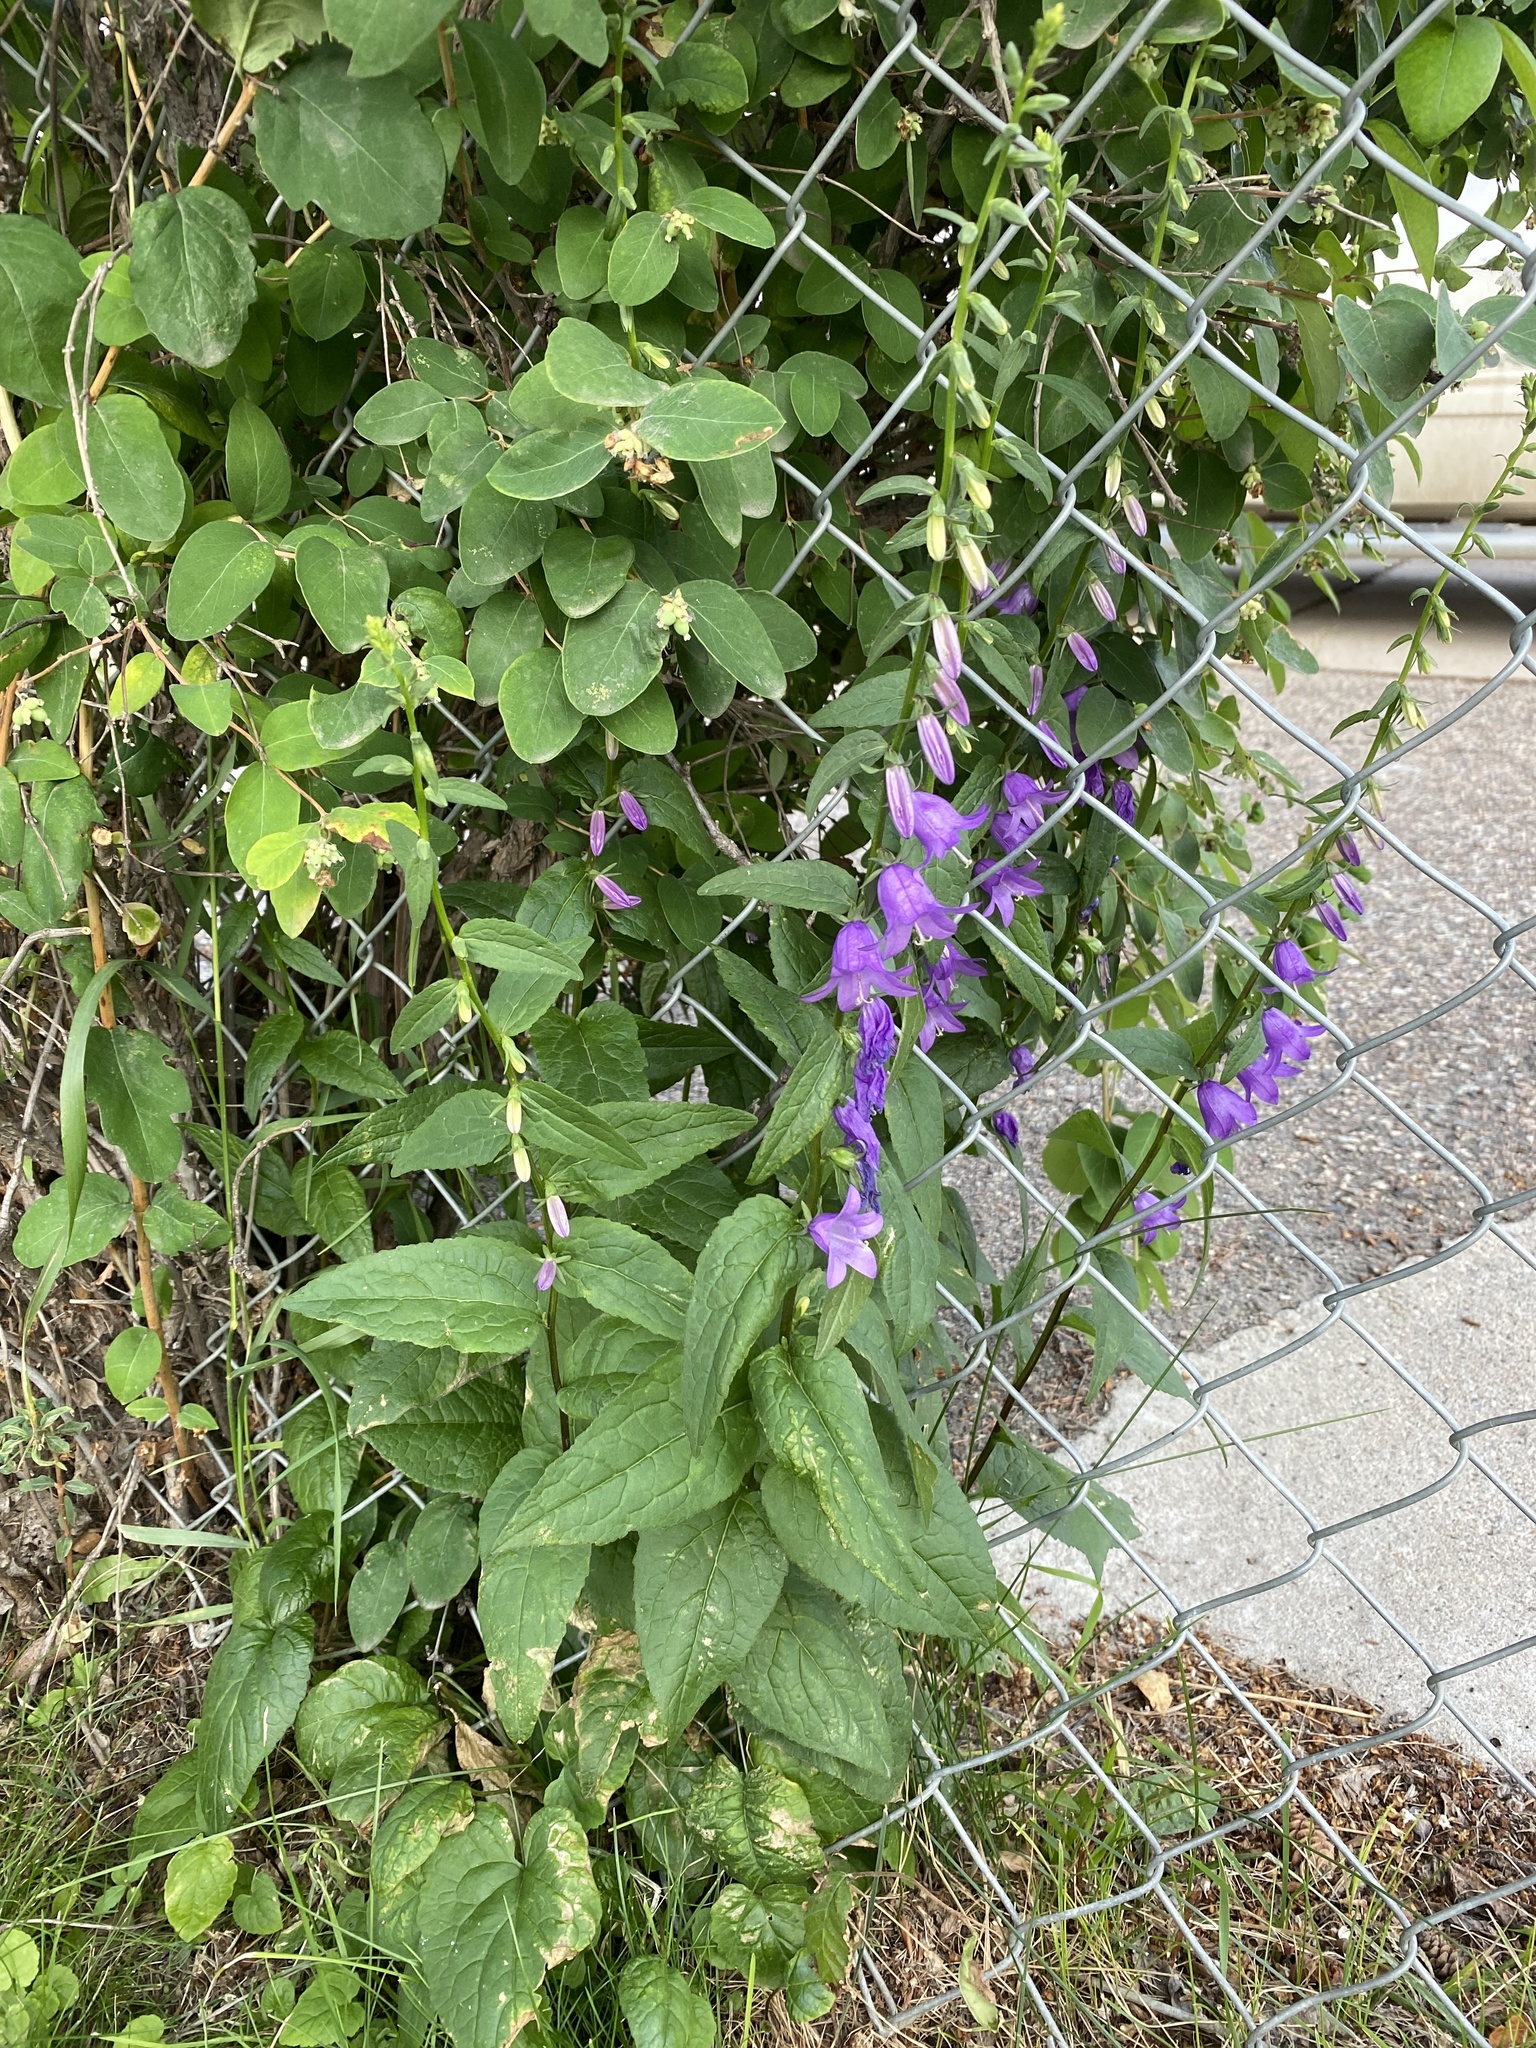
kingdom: Plantae
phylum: Tracheophyta
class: Magnoliopsida
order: Asterales
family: Campanulaceae
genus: Campanula
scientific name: Campanula rapunculoides
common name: Creeping bellflower
